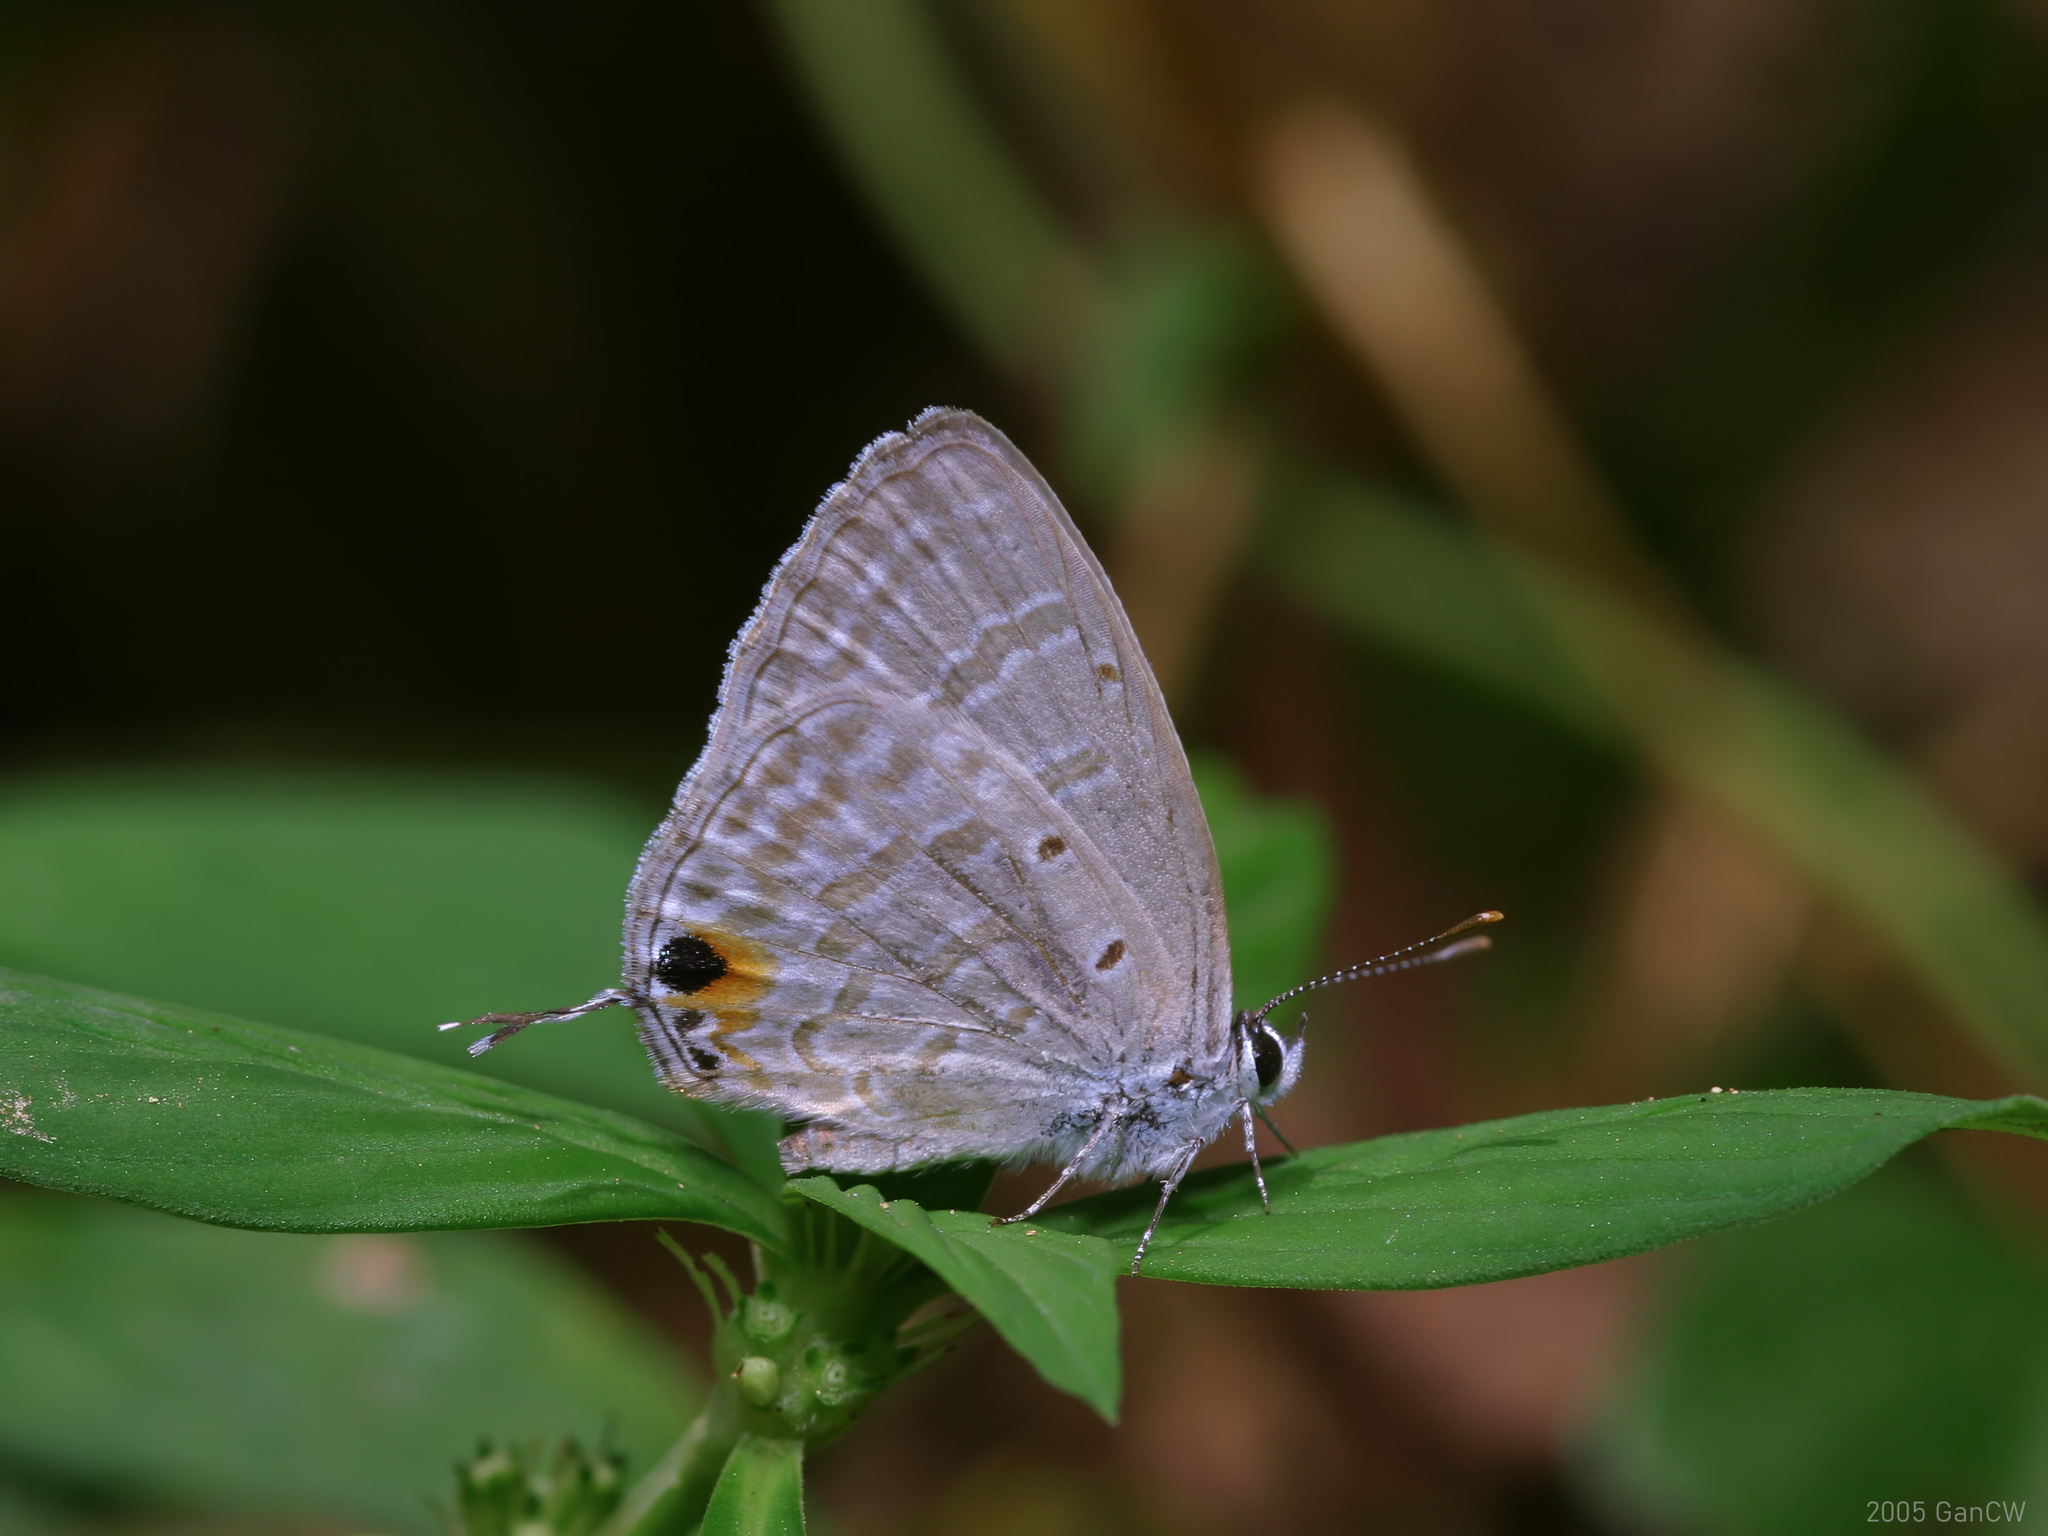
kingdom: Animalia
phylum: Arthropoda
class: Insecta
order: Lepidoptera
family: Lycaenidae
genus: Catochrysops
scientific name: Catochrysops strabo
